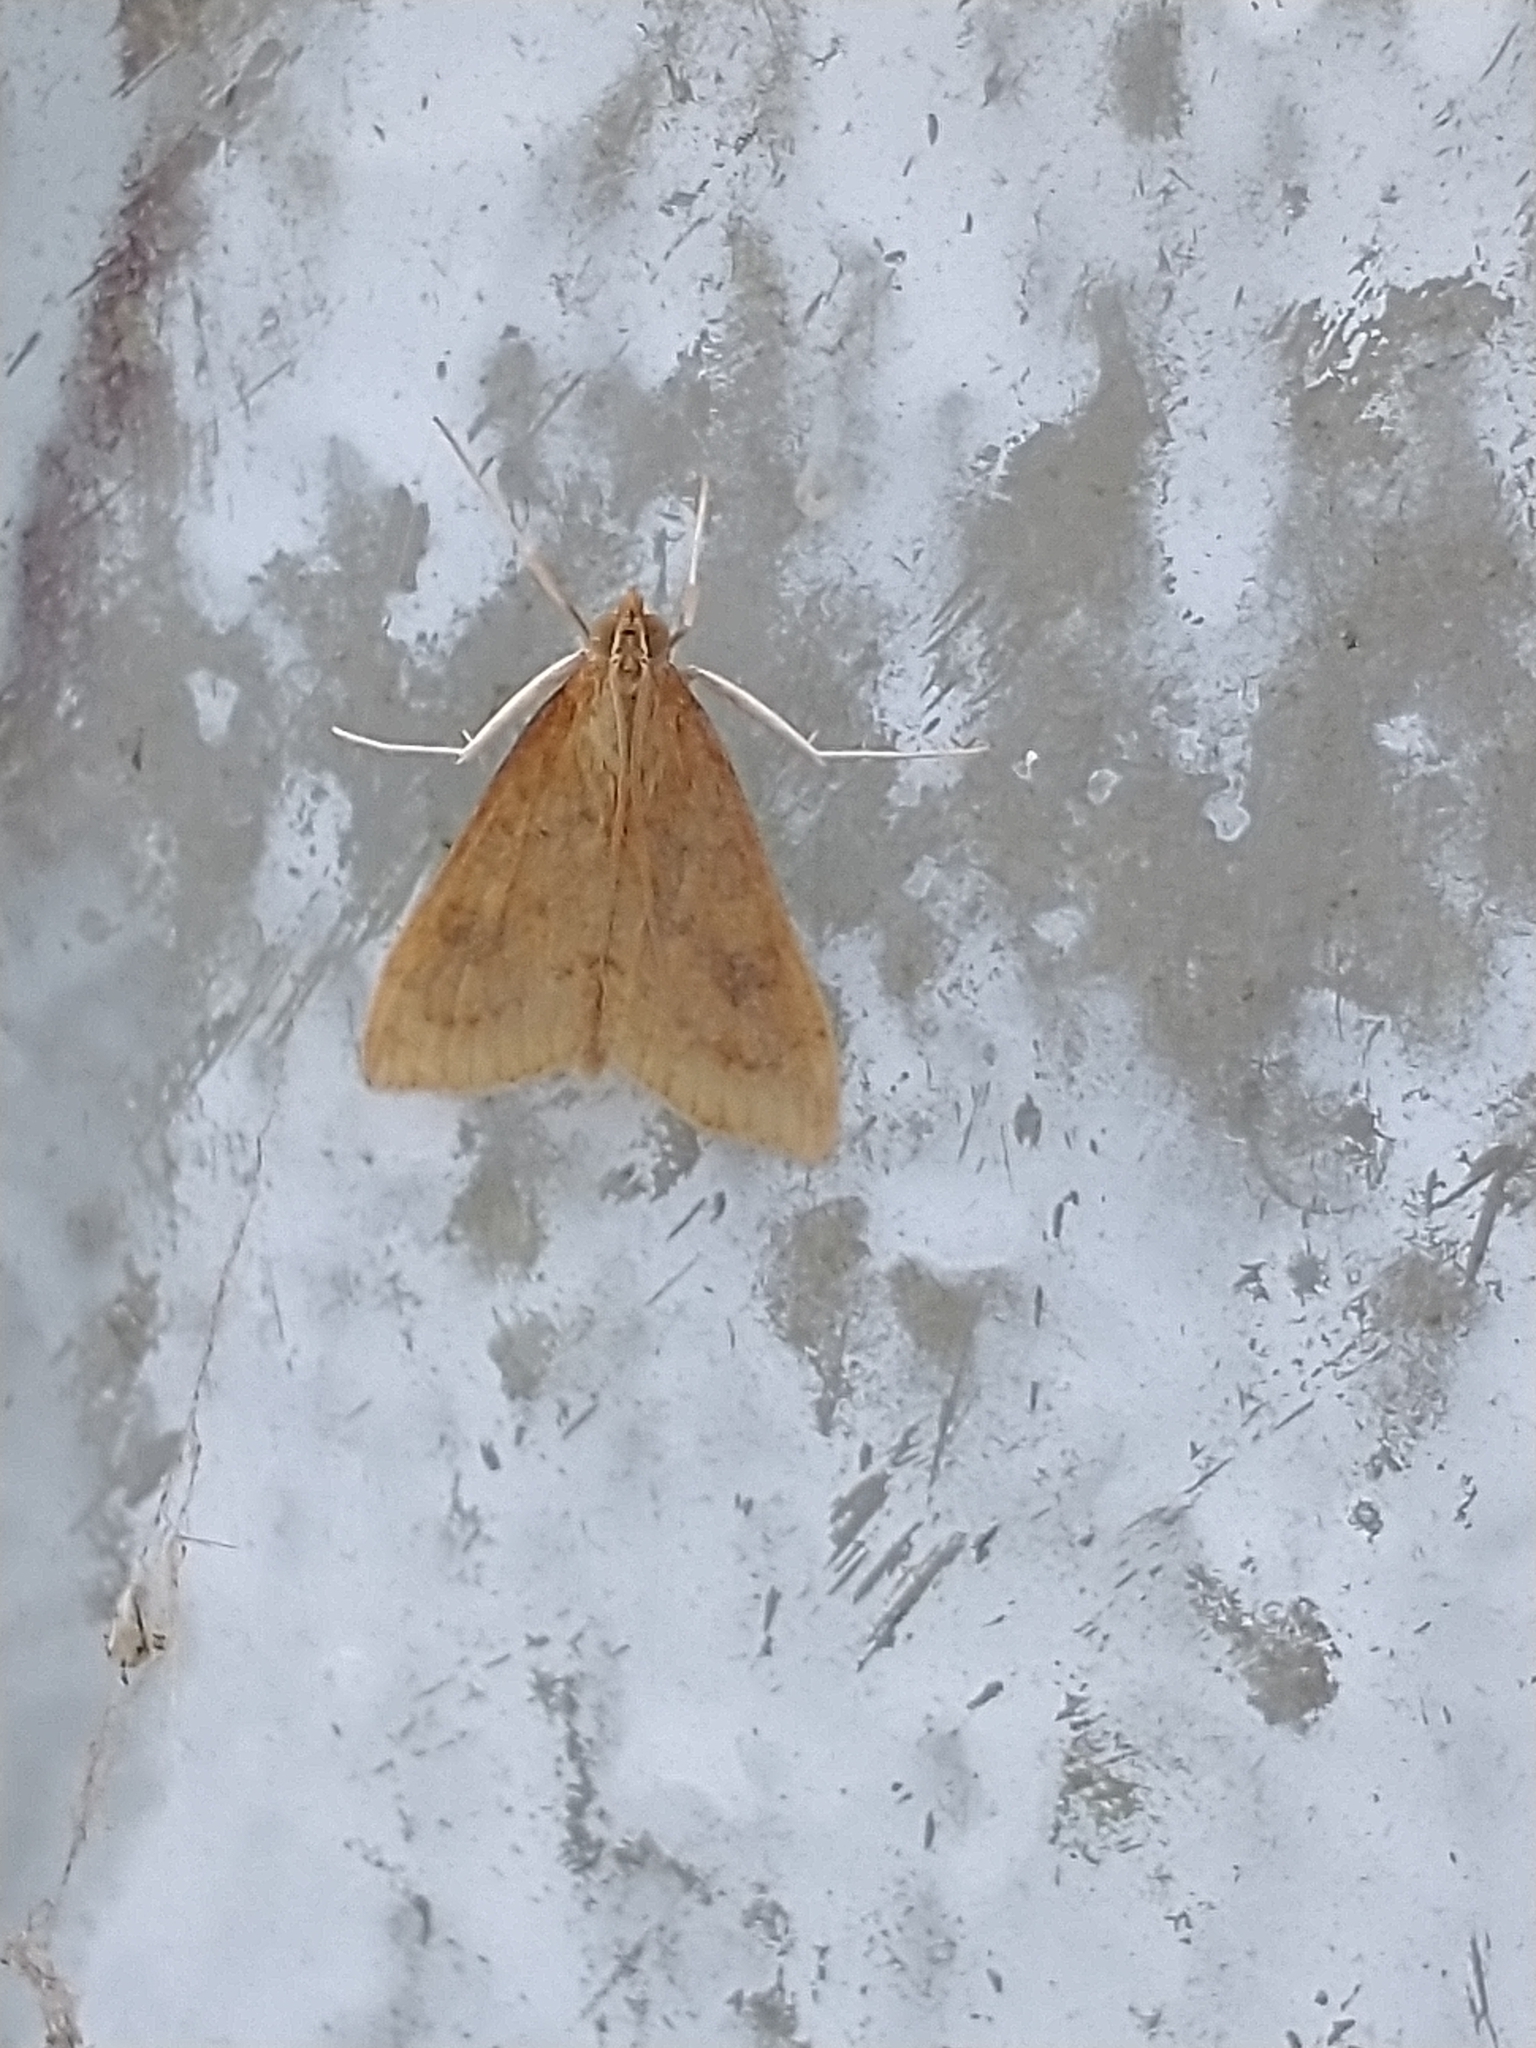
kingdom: Animalia
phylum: Arthropoda
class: Insecta
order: Lepidoptera
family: Crambidae
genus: Udea
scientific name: Udea ferrugalis
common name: Rusty dot
